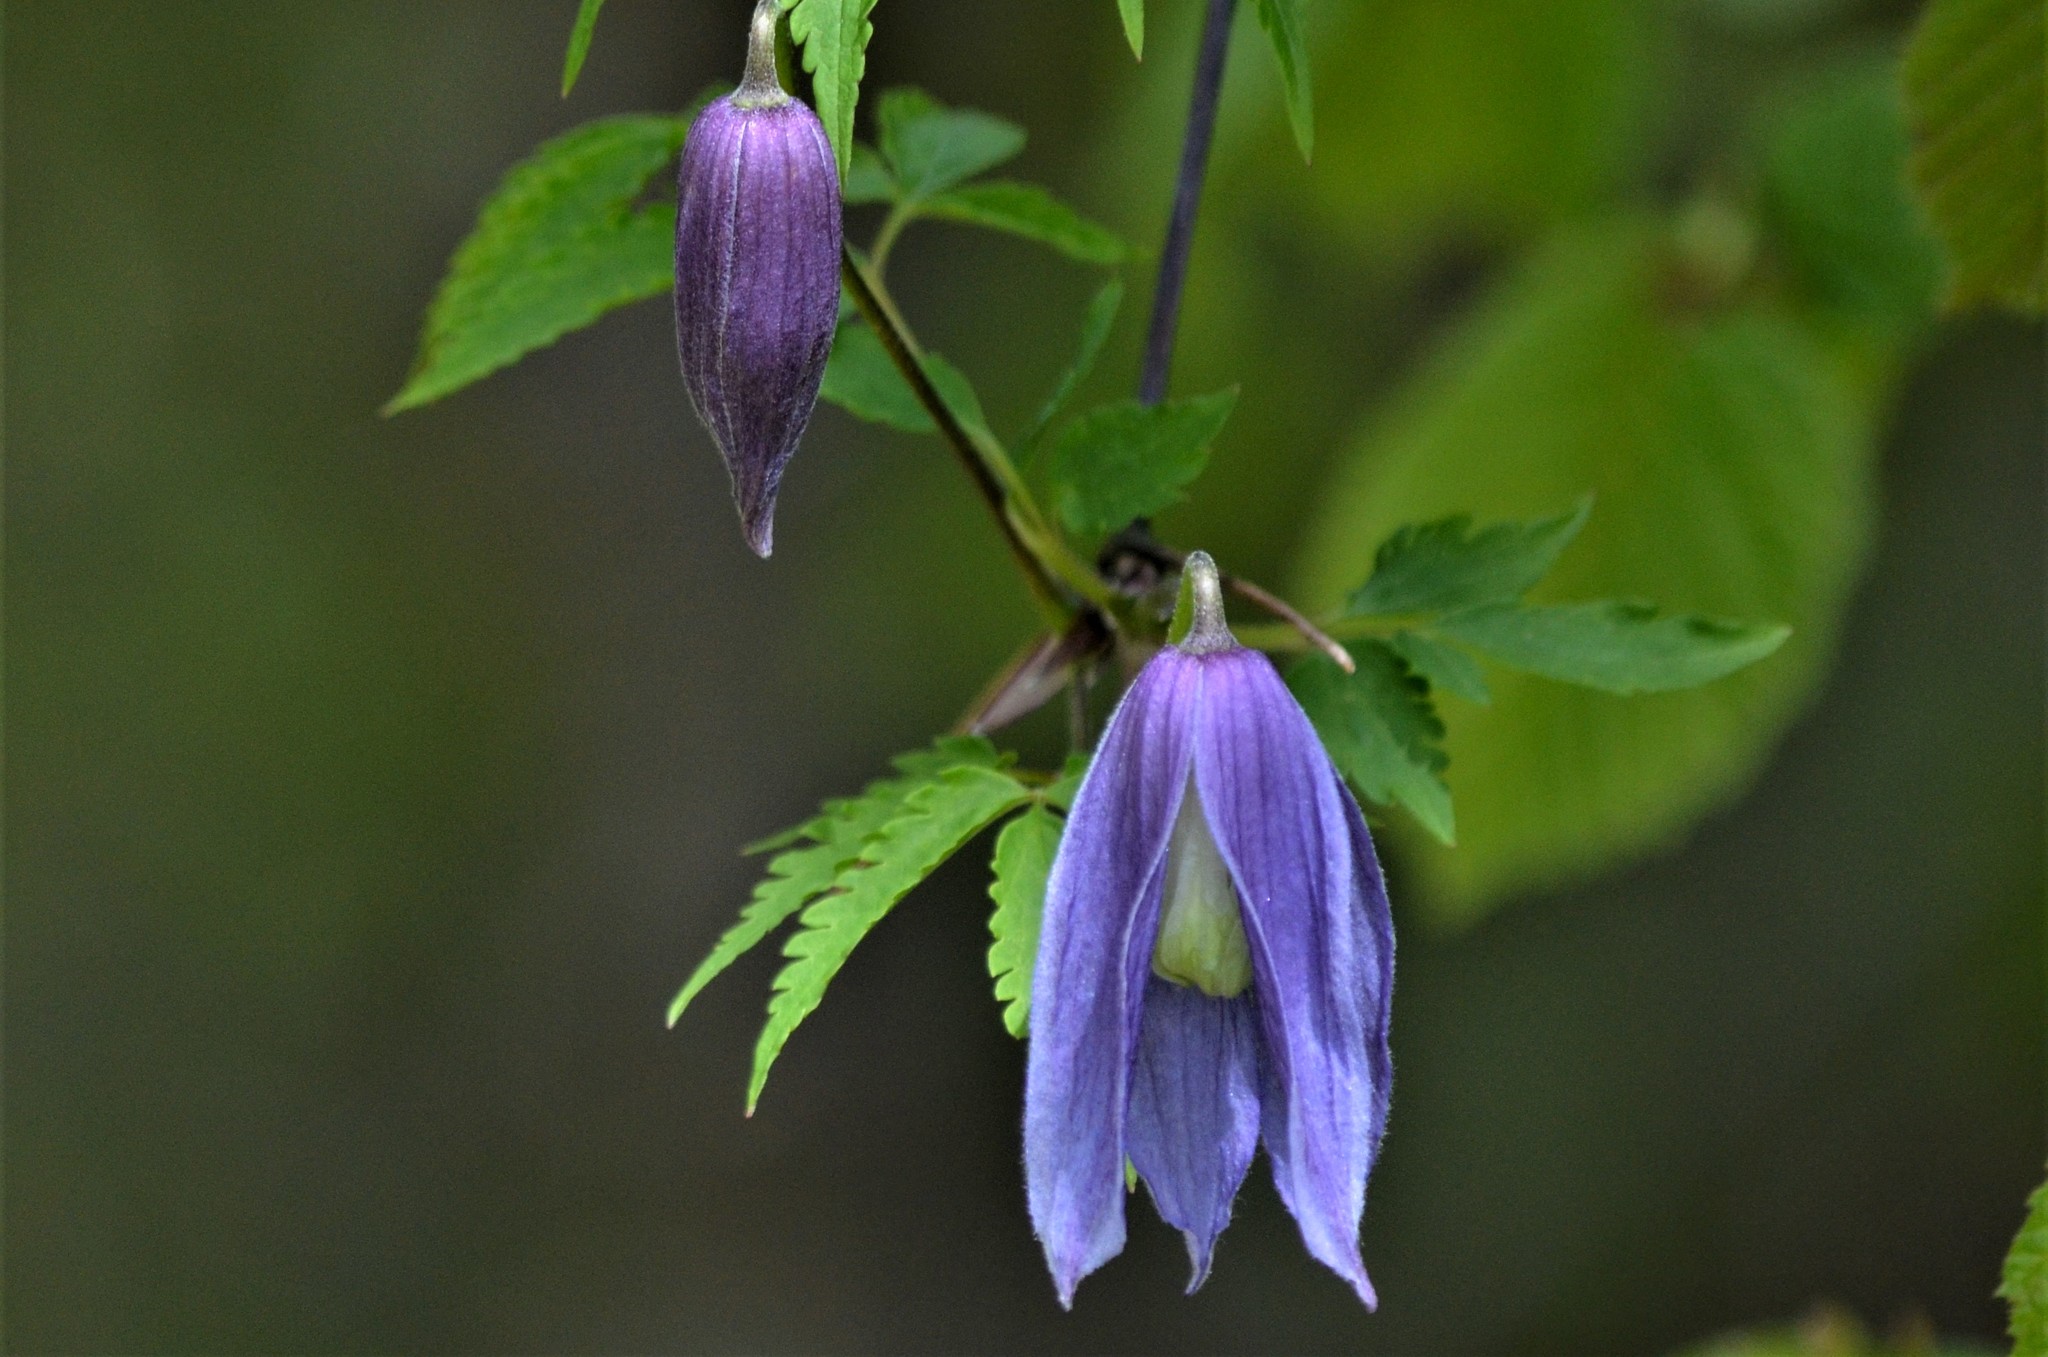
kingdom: Plantae
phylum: Tracheophyta
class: Magnoliopsida
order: Ranunculales
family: Ranunculaceae
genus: Clematis
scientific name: Clematis alpina
